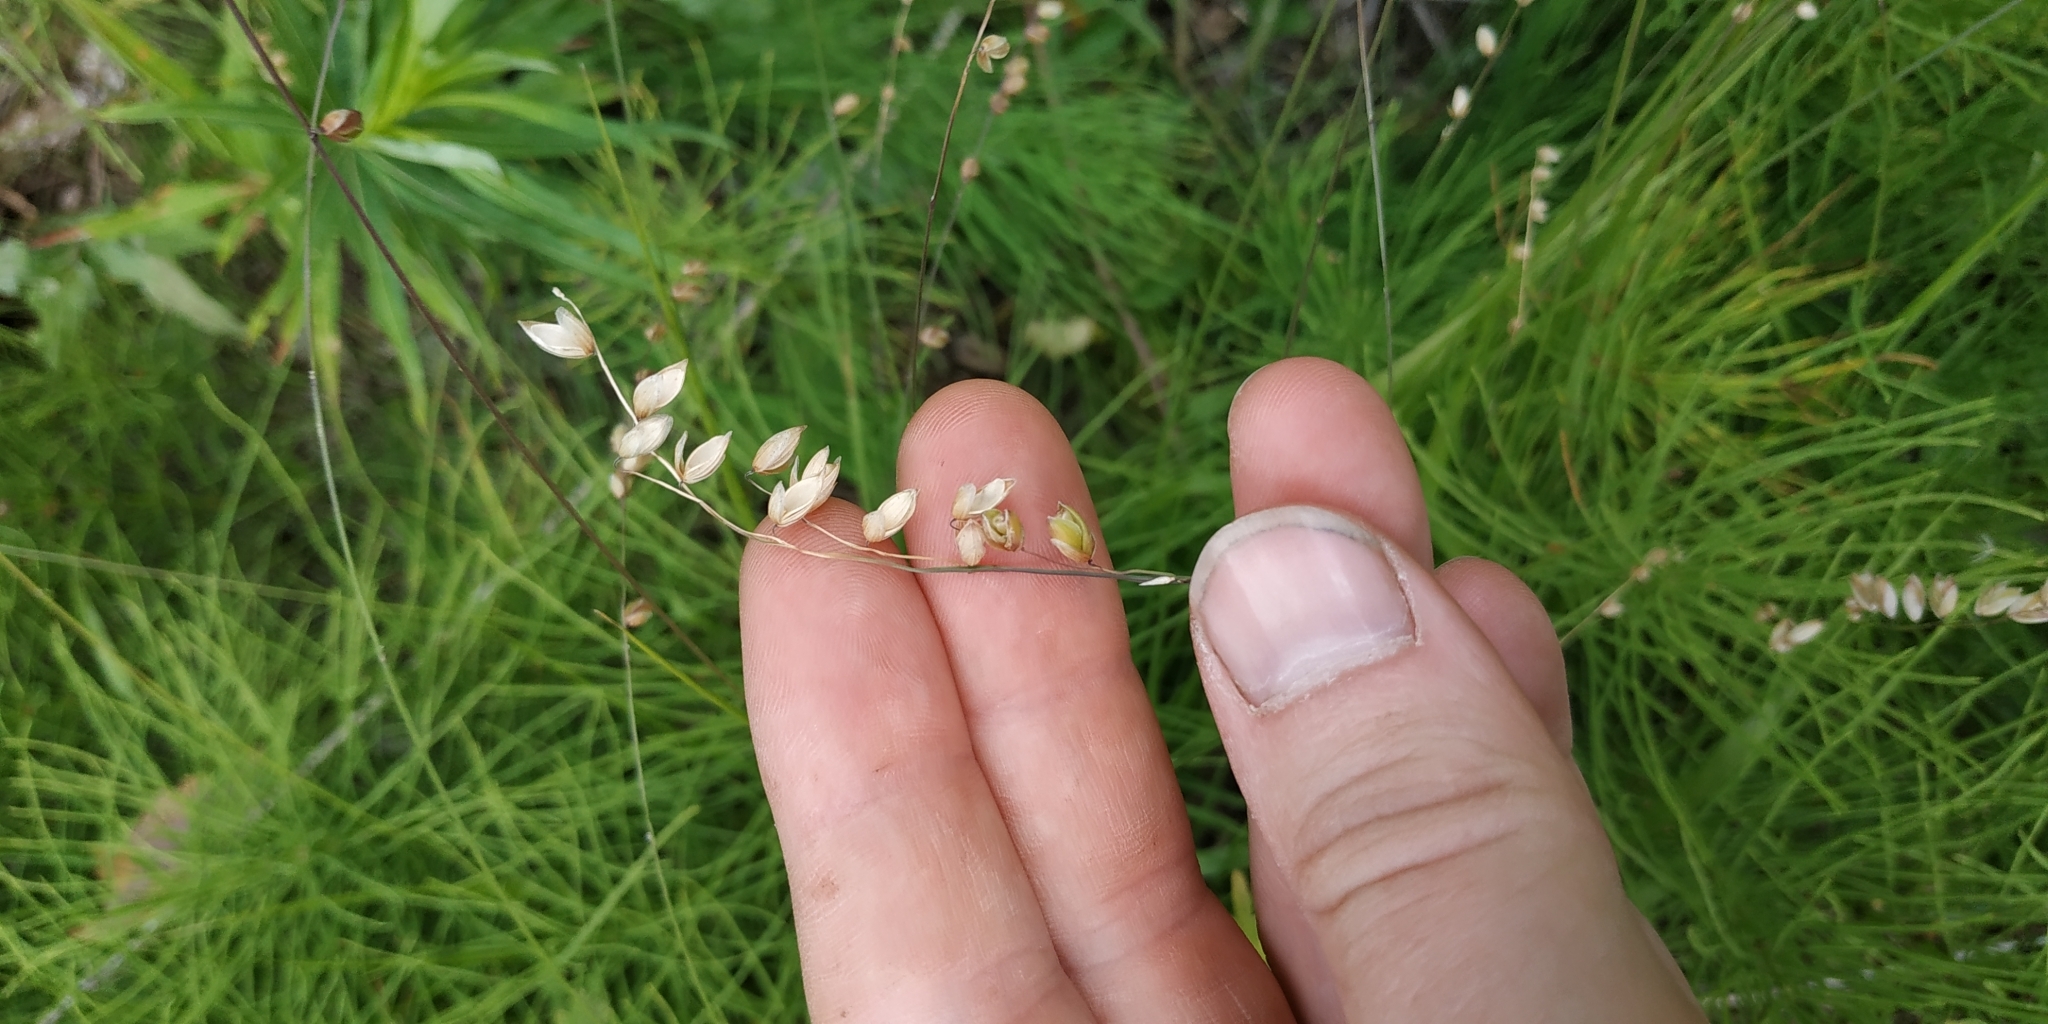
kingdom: Plantae
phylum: Tracheophyta
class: Liliopsida
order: Poales
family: Poaceae
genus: Melica
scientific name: Melica nutans
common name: Mountain melick
